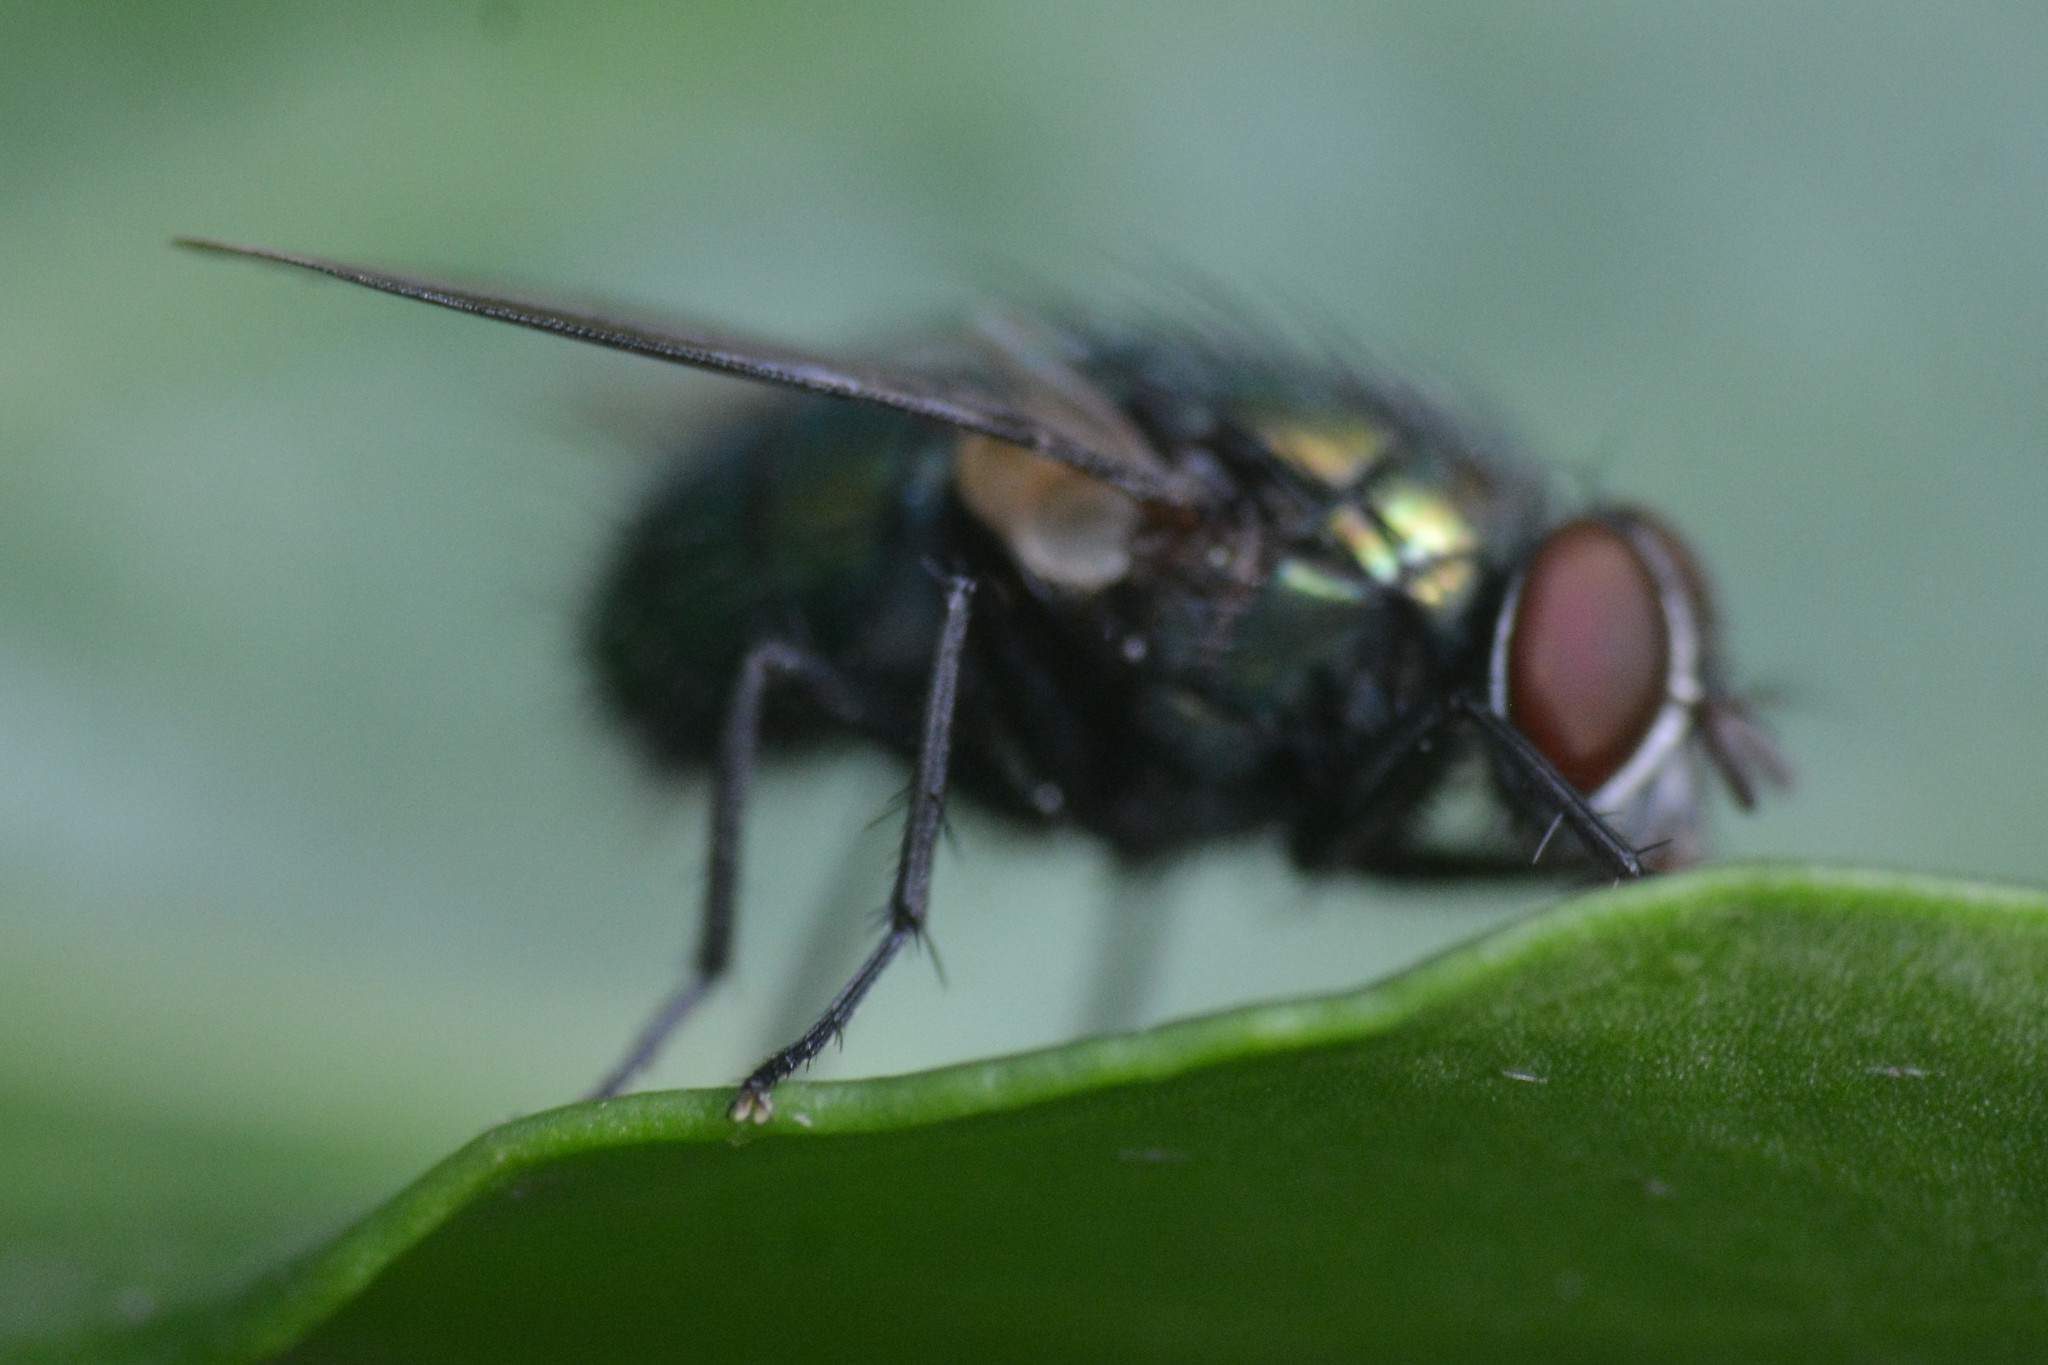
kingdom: Animalia
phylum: Arthropoda
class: Insecta
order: Diptera
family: Calliphoridae
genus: Lucilia
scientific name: Lucilia
